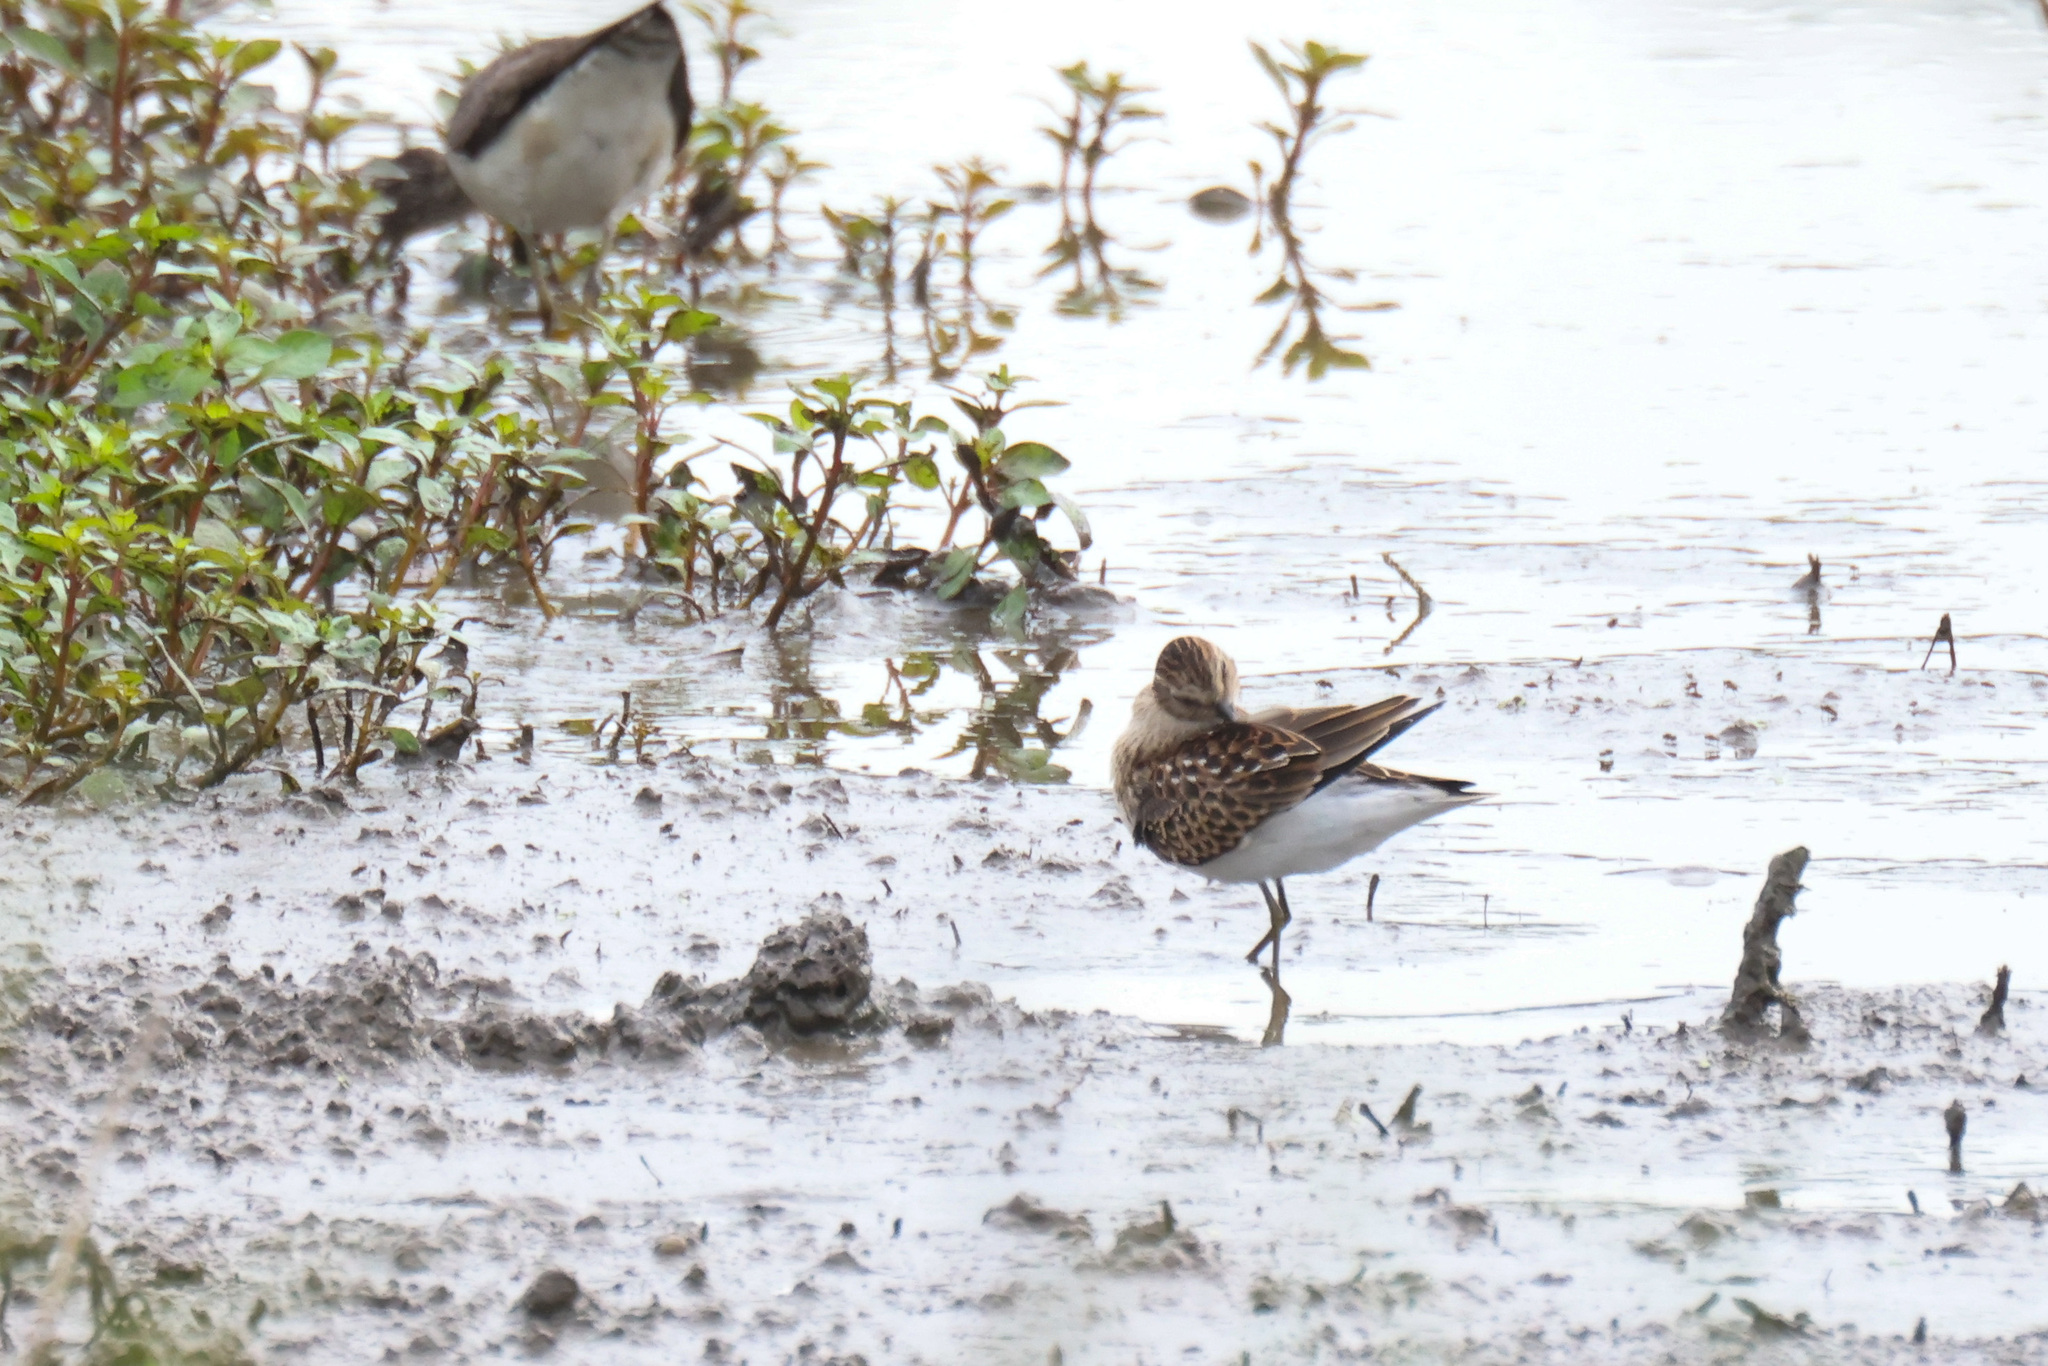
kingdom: Animalia
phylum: Chordata
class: Aves
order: Charadriiformes
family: Scolopacidae
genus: Calidris
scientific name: Calidris minutilla
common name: Least sandpiper
